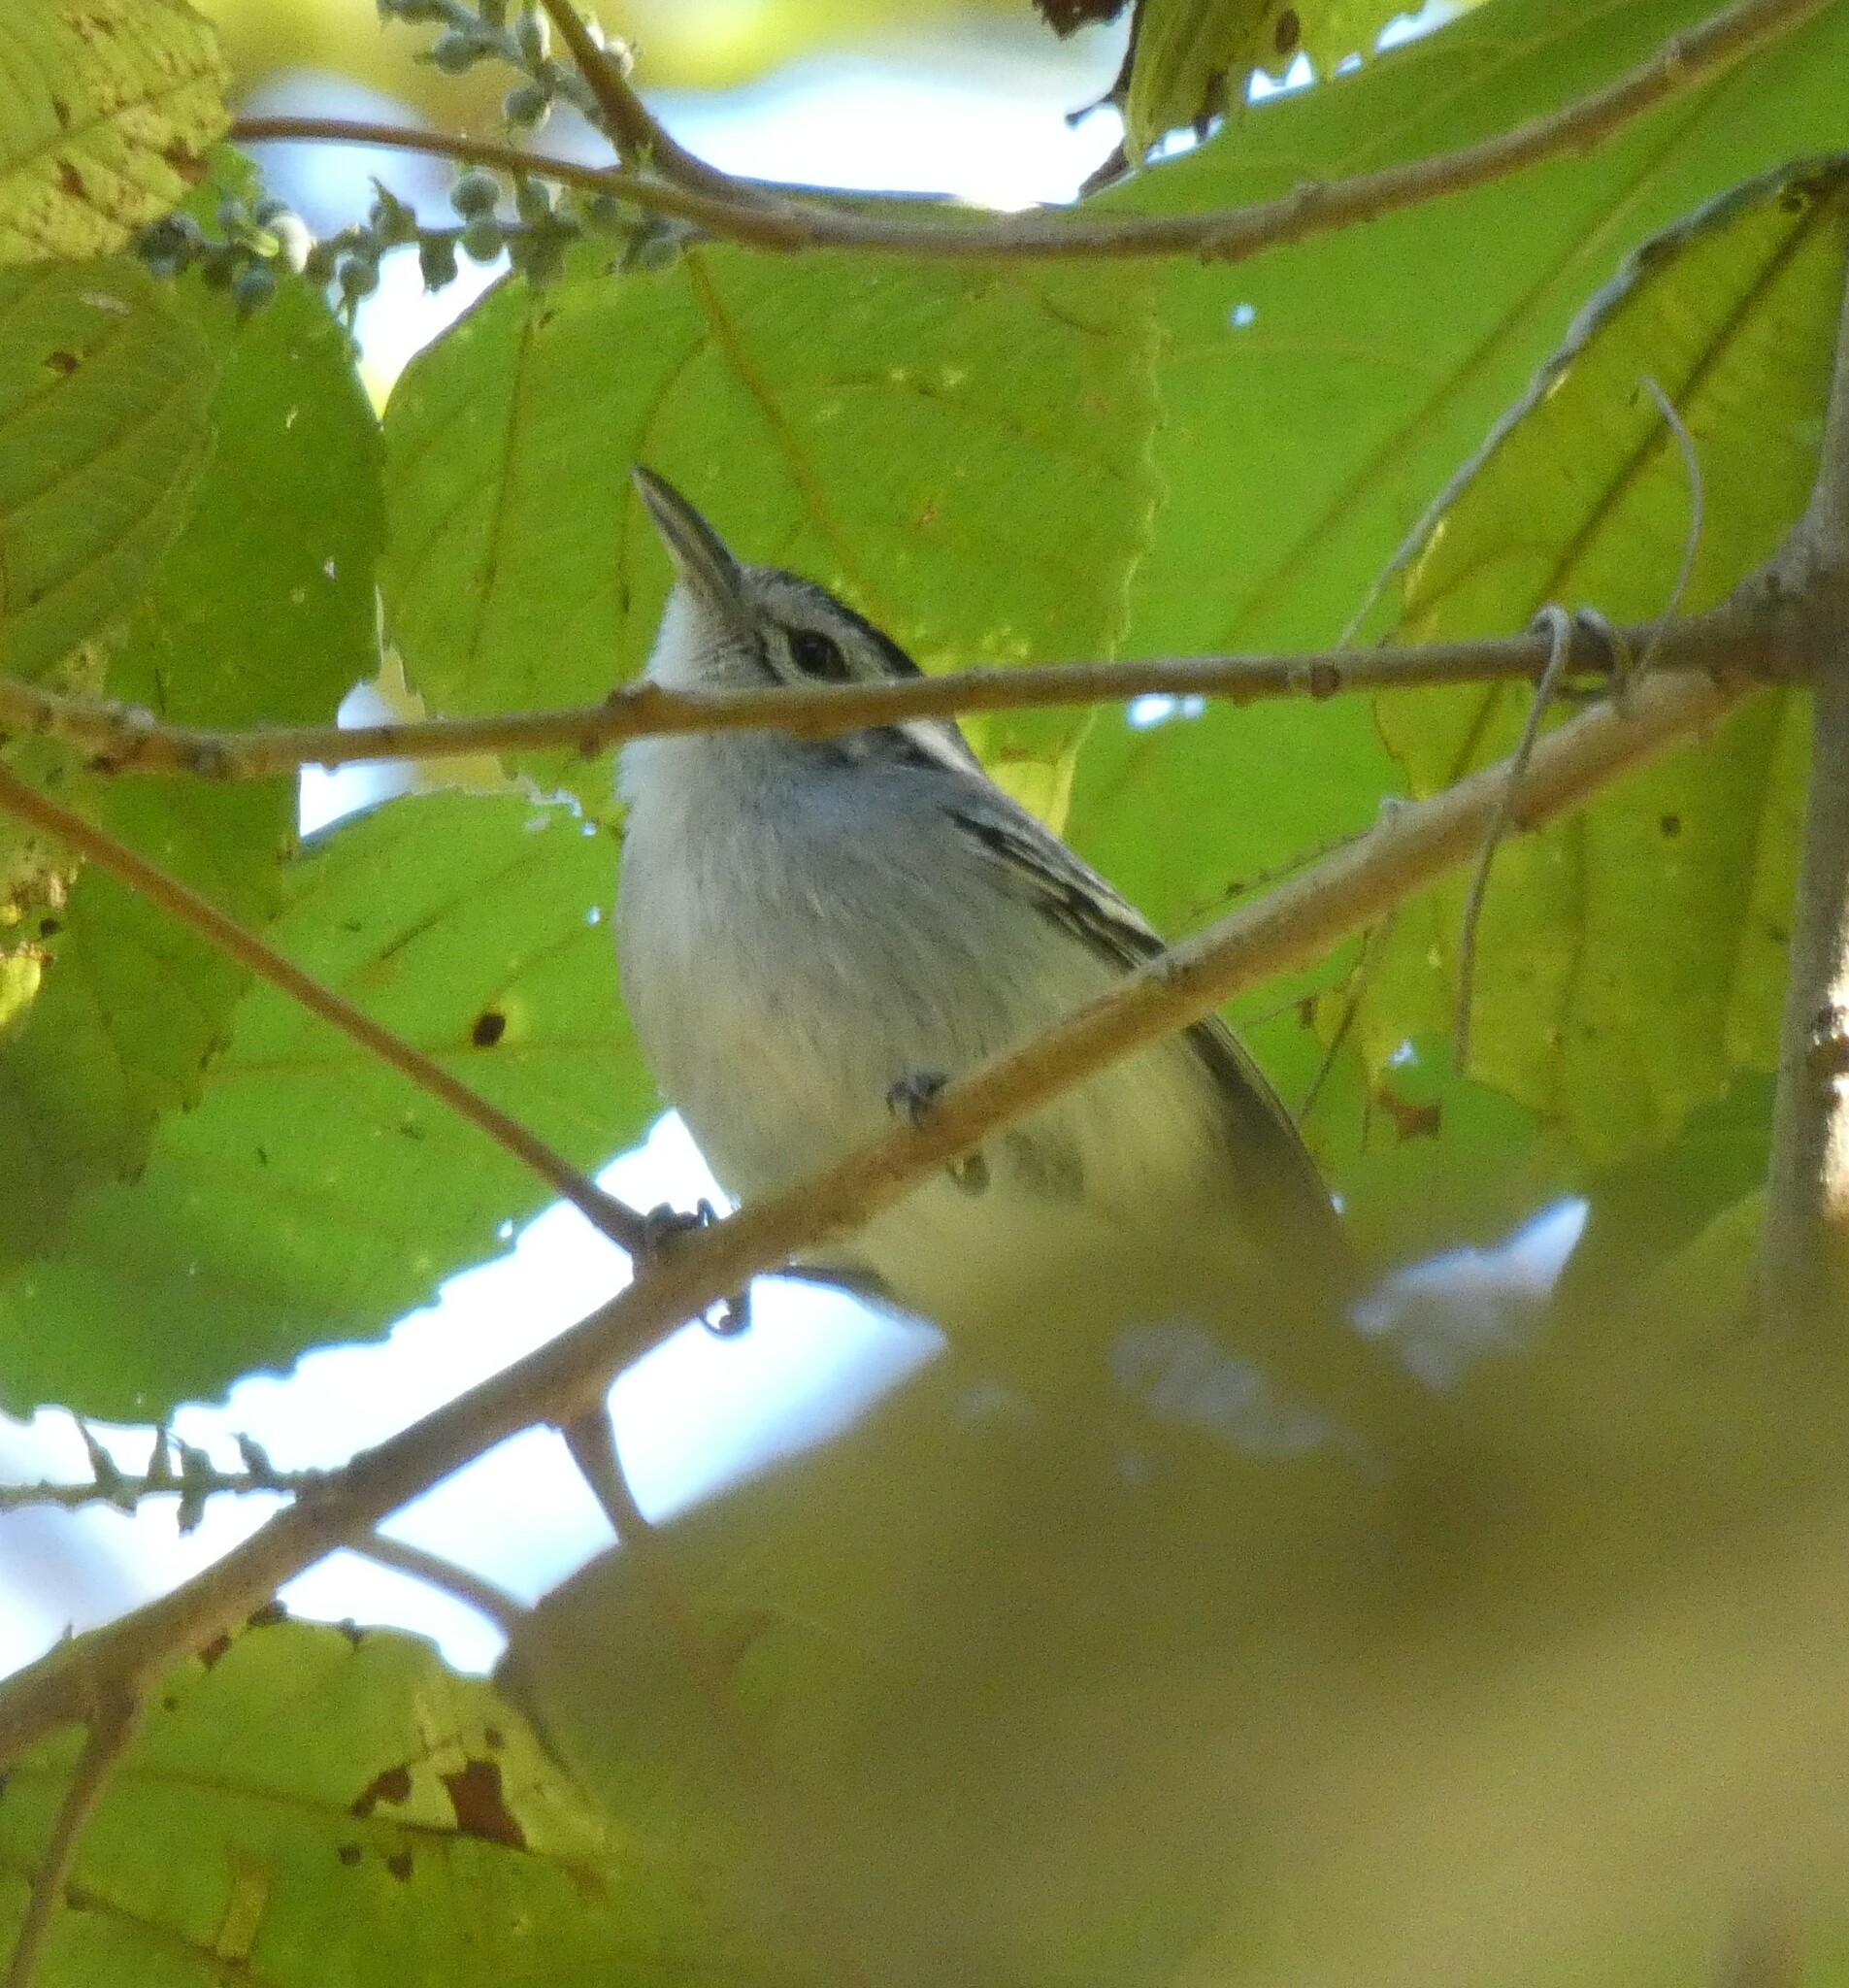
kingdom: Animalia
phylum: Chordata
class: Aves
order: Passeriformes
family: Thamnophilidae
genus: Herpsilochmus
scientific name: Herpsilochmus atricapillus
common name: Black-capped antwren
